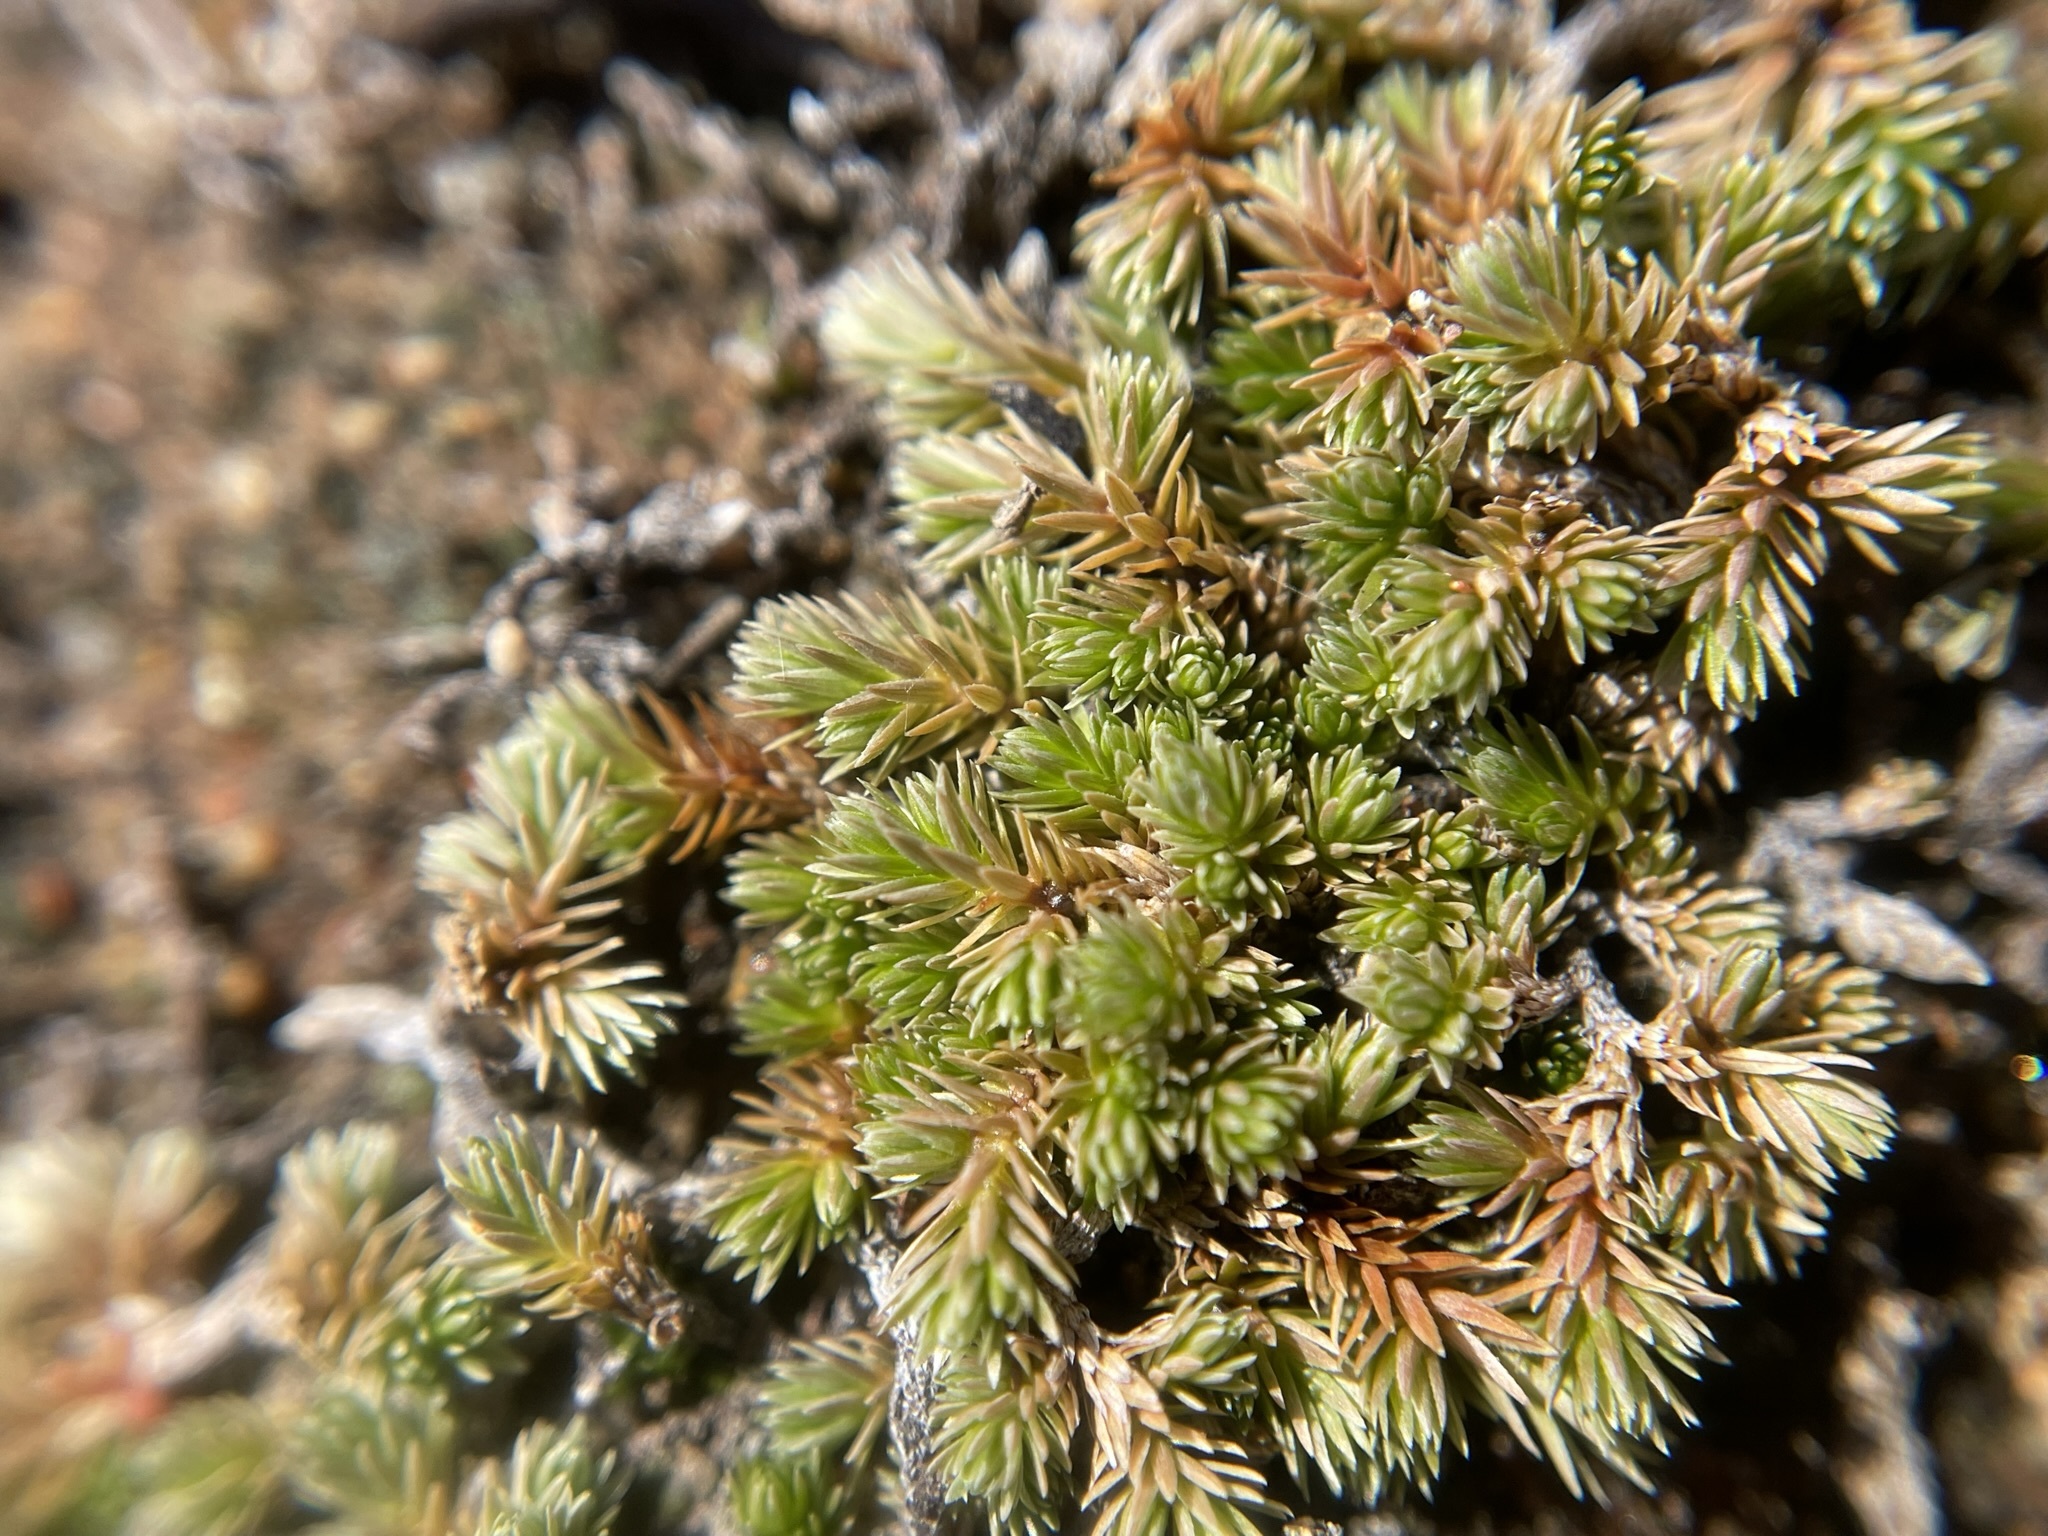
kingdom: Plantae
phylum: Tracheophyta
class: Lycopodiopsida
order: Selaginellales
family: Selaginellaceae
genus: Selaginella
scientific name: Selaginella cinerascens
